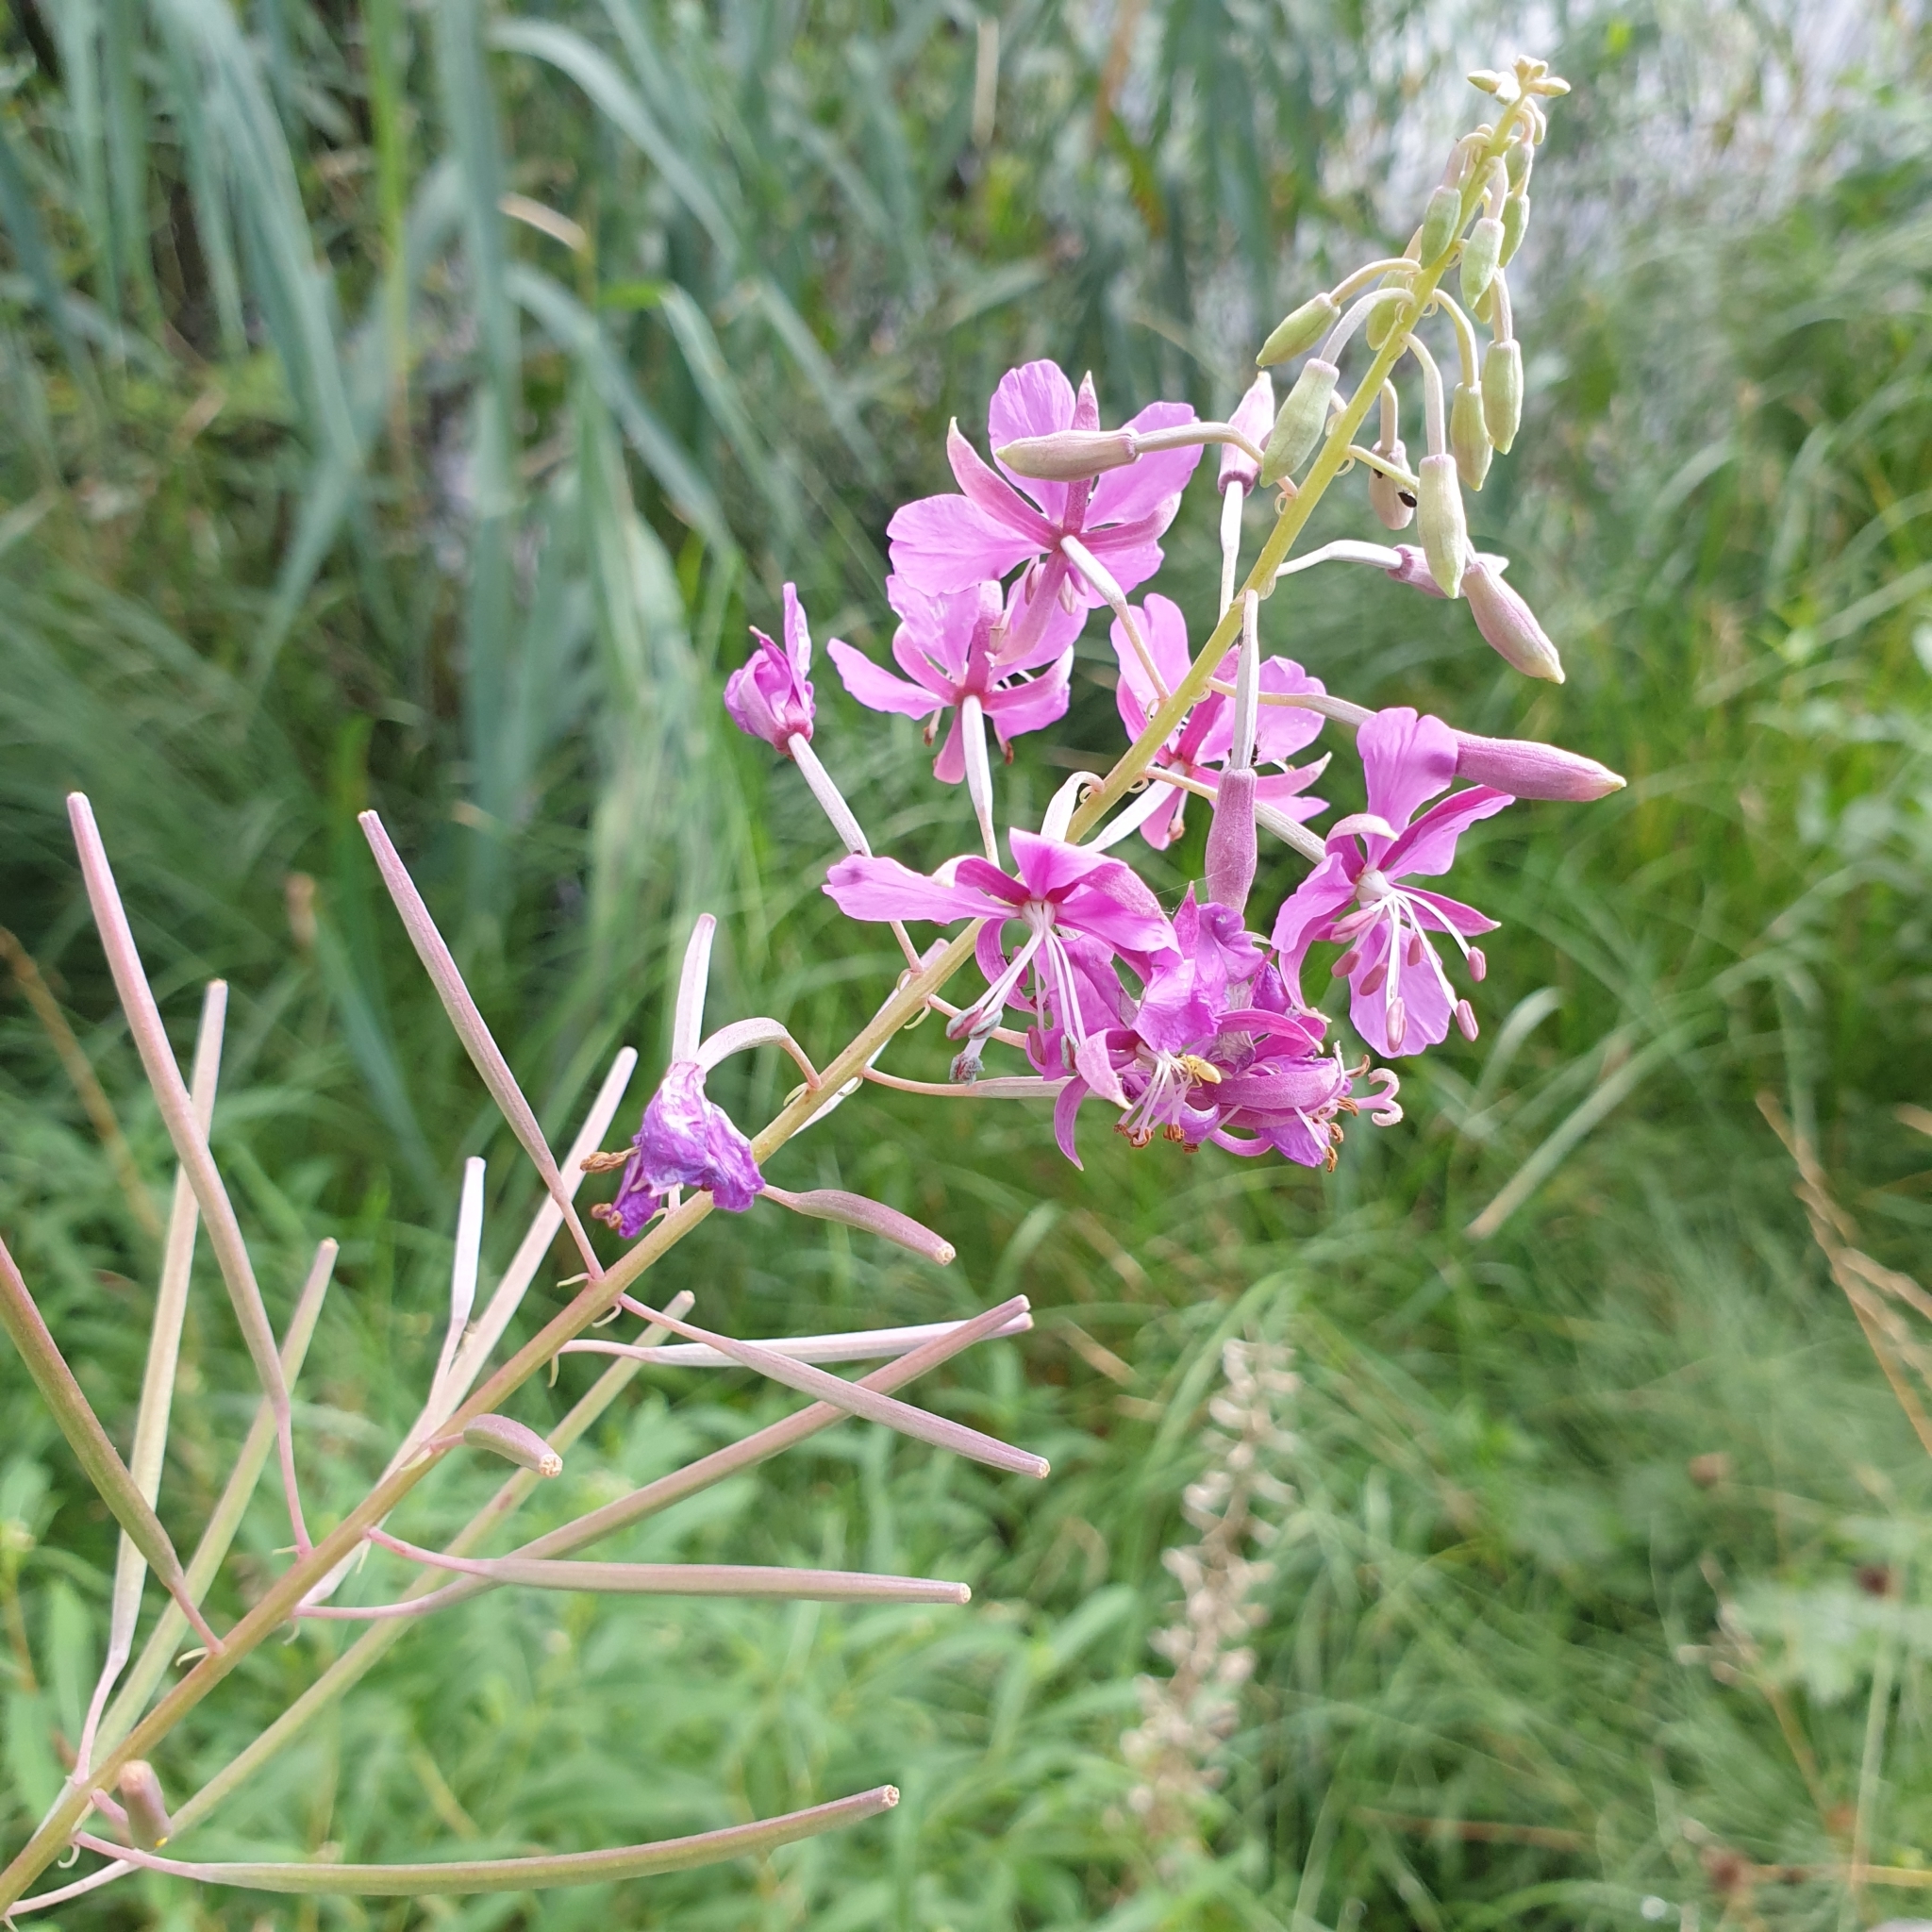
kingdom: Plantae
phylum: Tracheophyta
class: Magnoliopsida
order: Myrtales
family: Onagraceae
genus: Chamaenerion
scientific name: Chamaenerion angustifolium
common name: Fireweed
